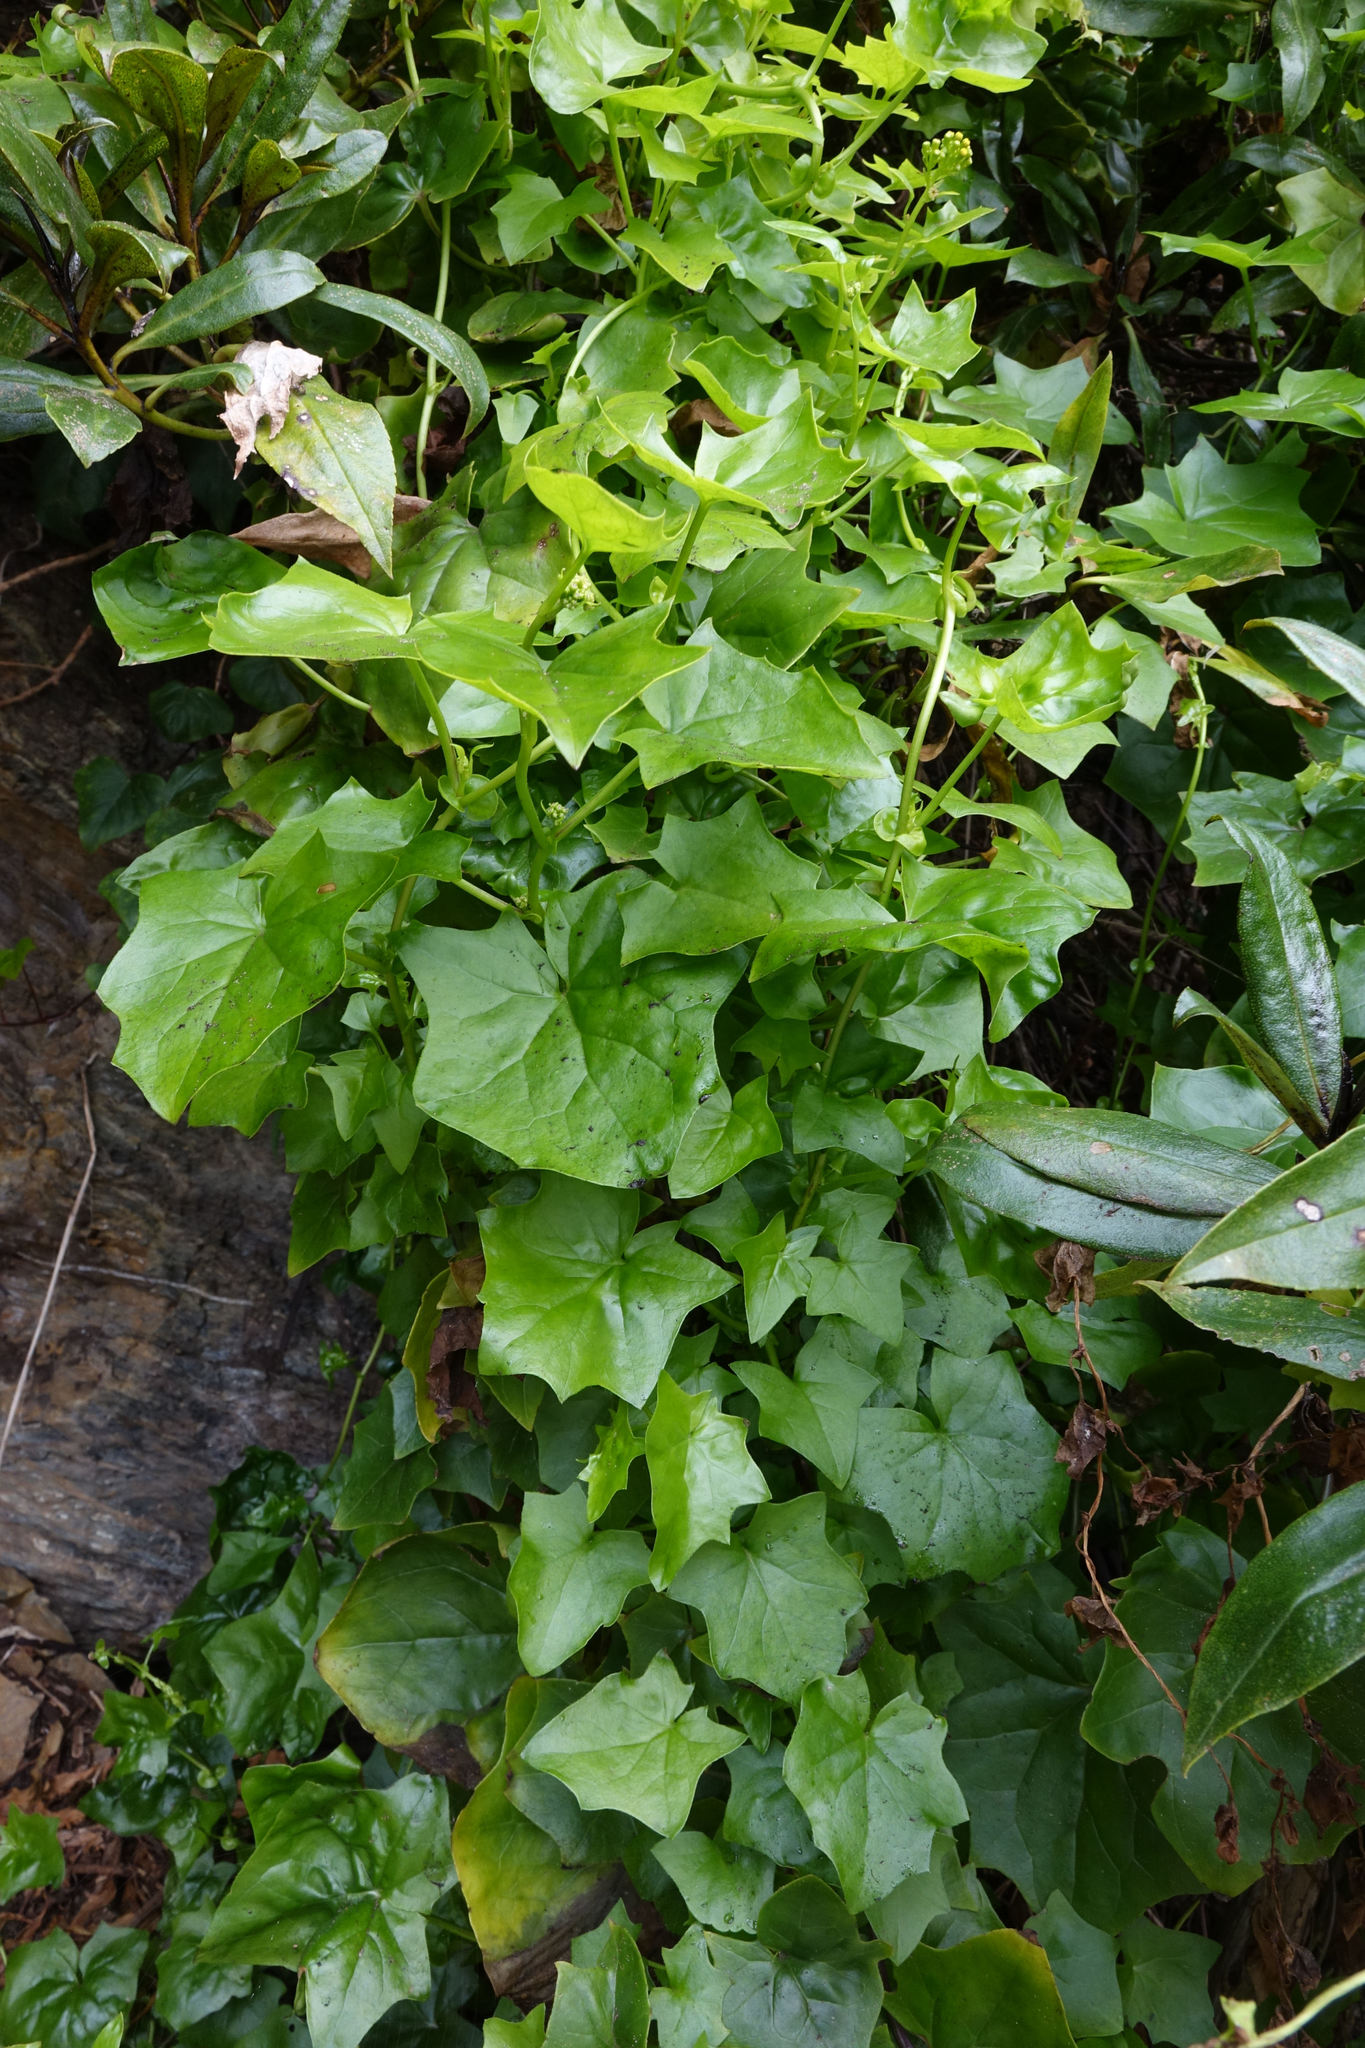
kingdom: Plantae
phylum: Tracheophyta
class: Magnoliopsida
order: Asterales
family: Asteraceae
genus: Delairea
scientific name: Delairea odorata
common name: Cape-ivy
